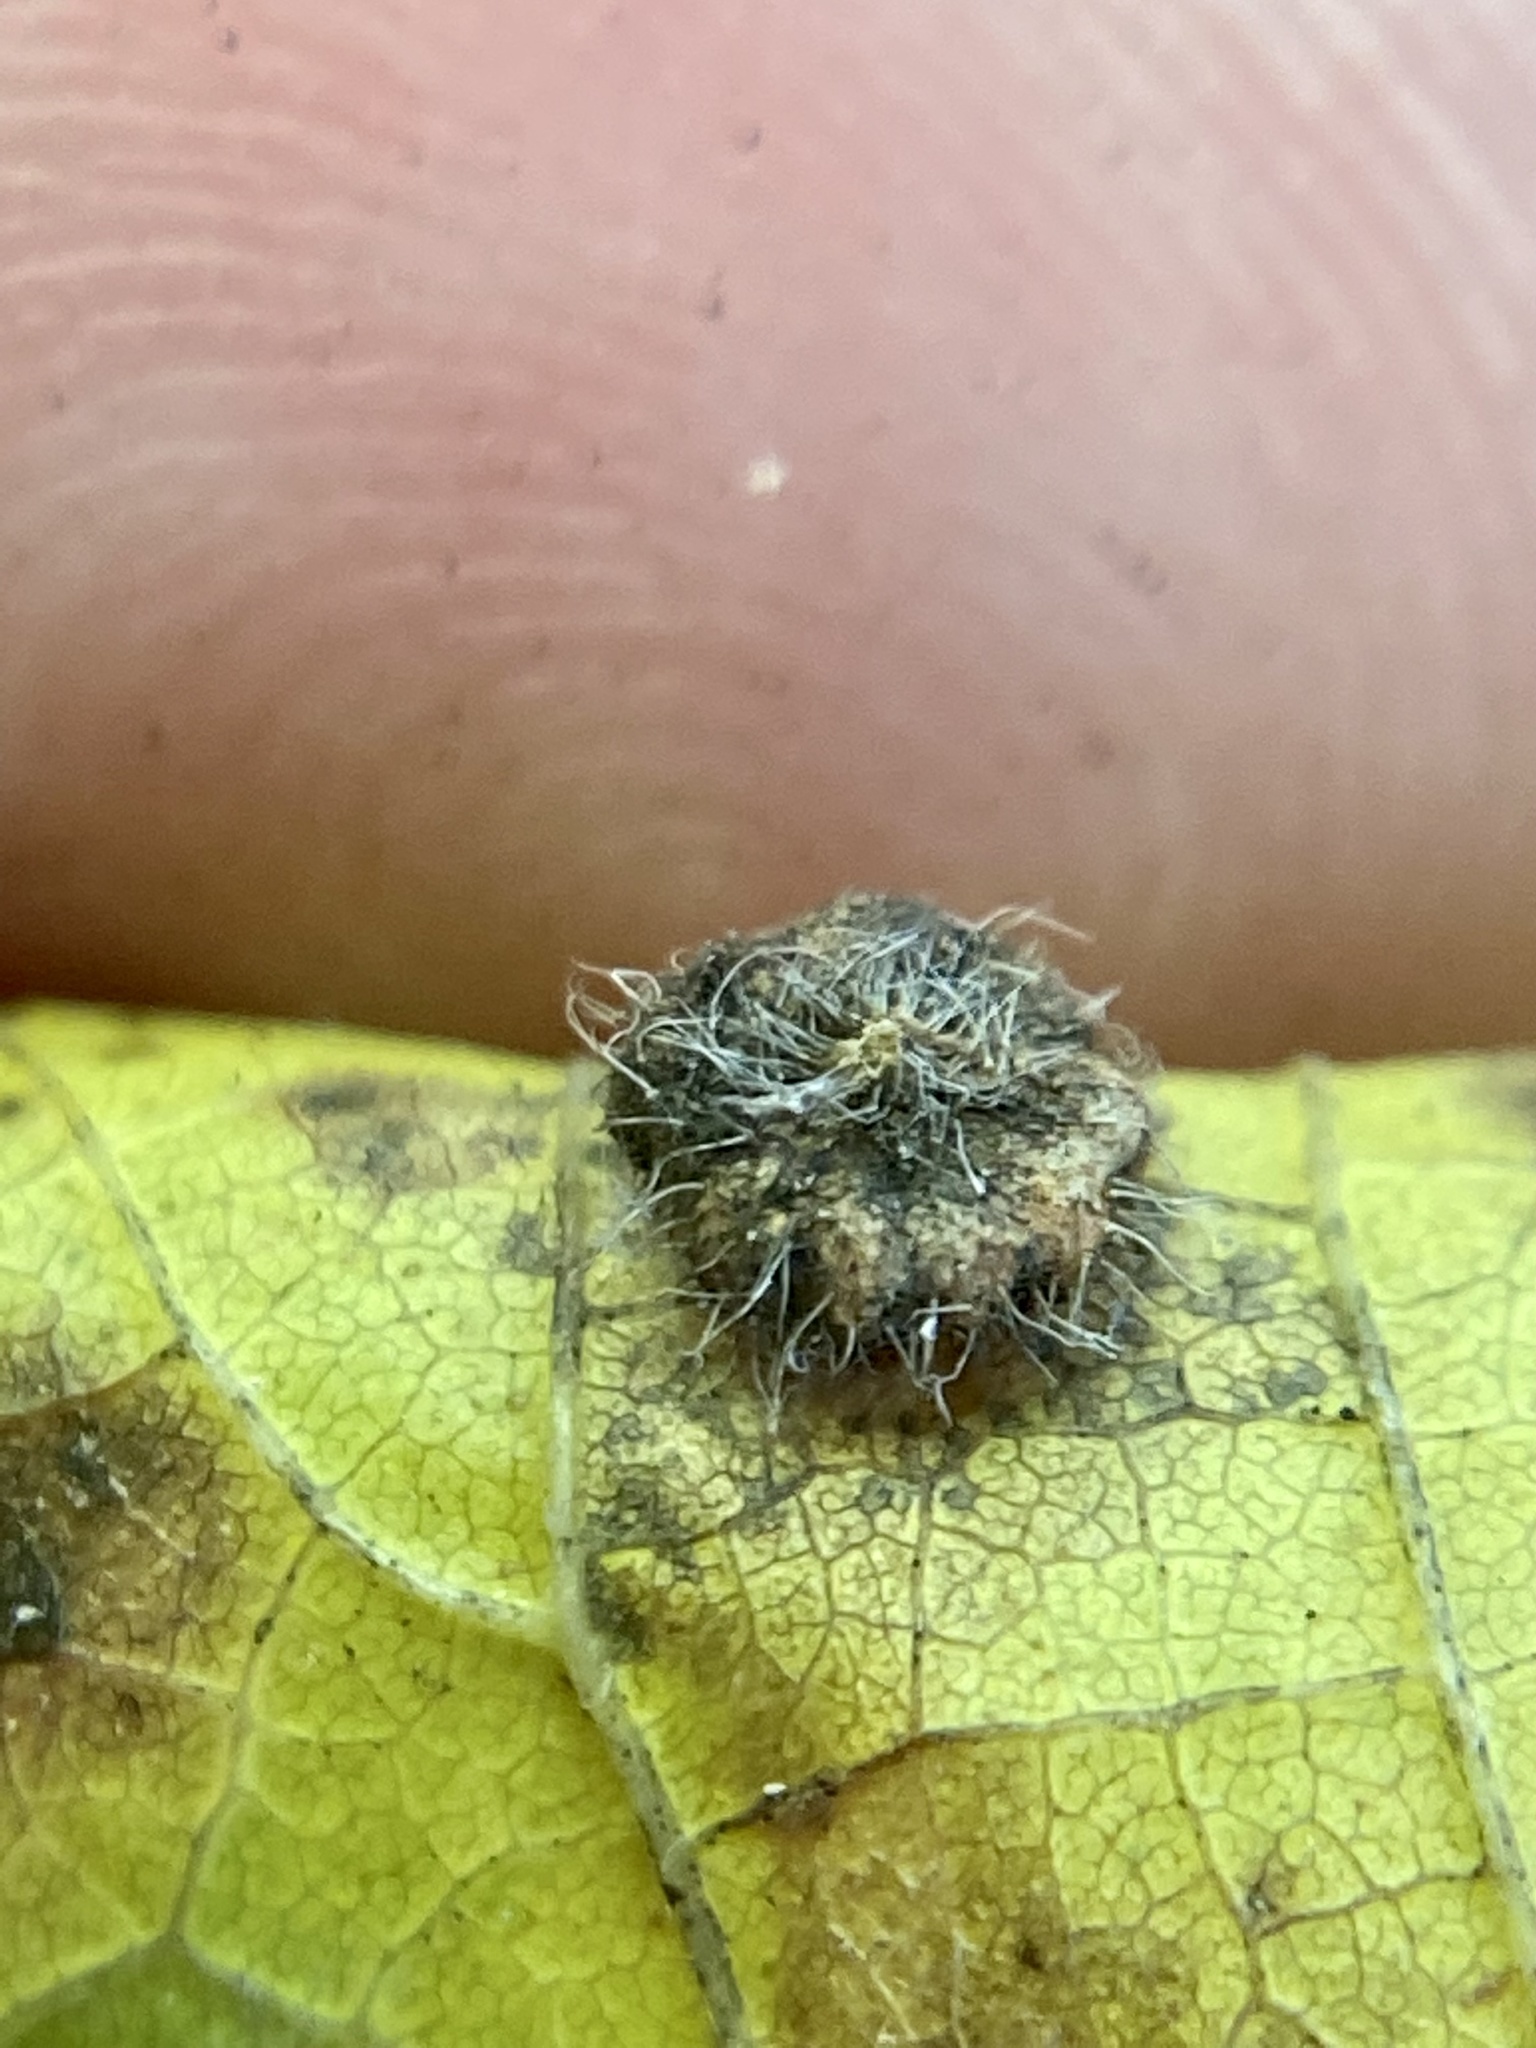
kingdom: Animalia
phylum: Arthropoda
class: Insecta
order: Diptera
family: Cecidomyiidae
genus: Celticecis
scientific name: Celticecis capsularis
